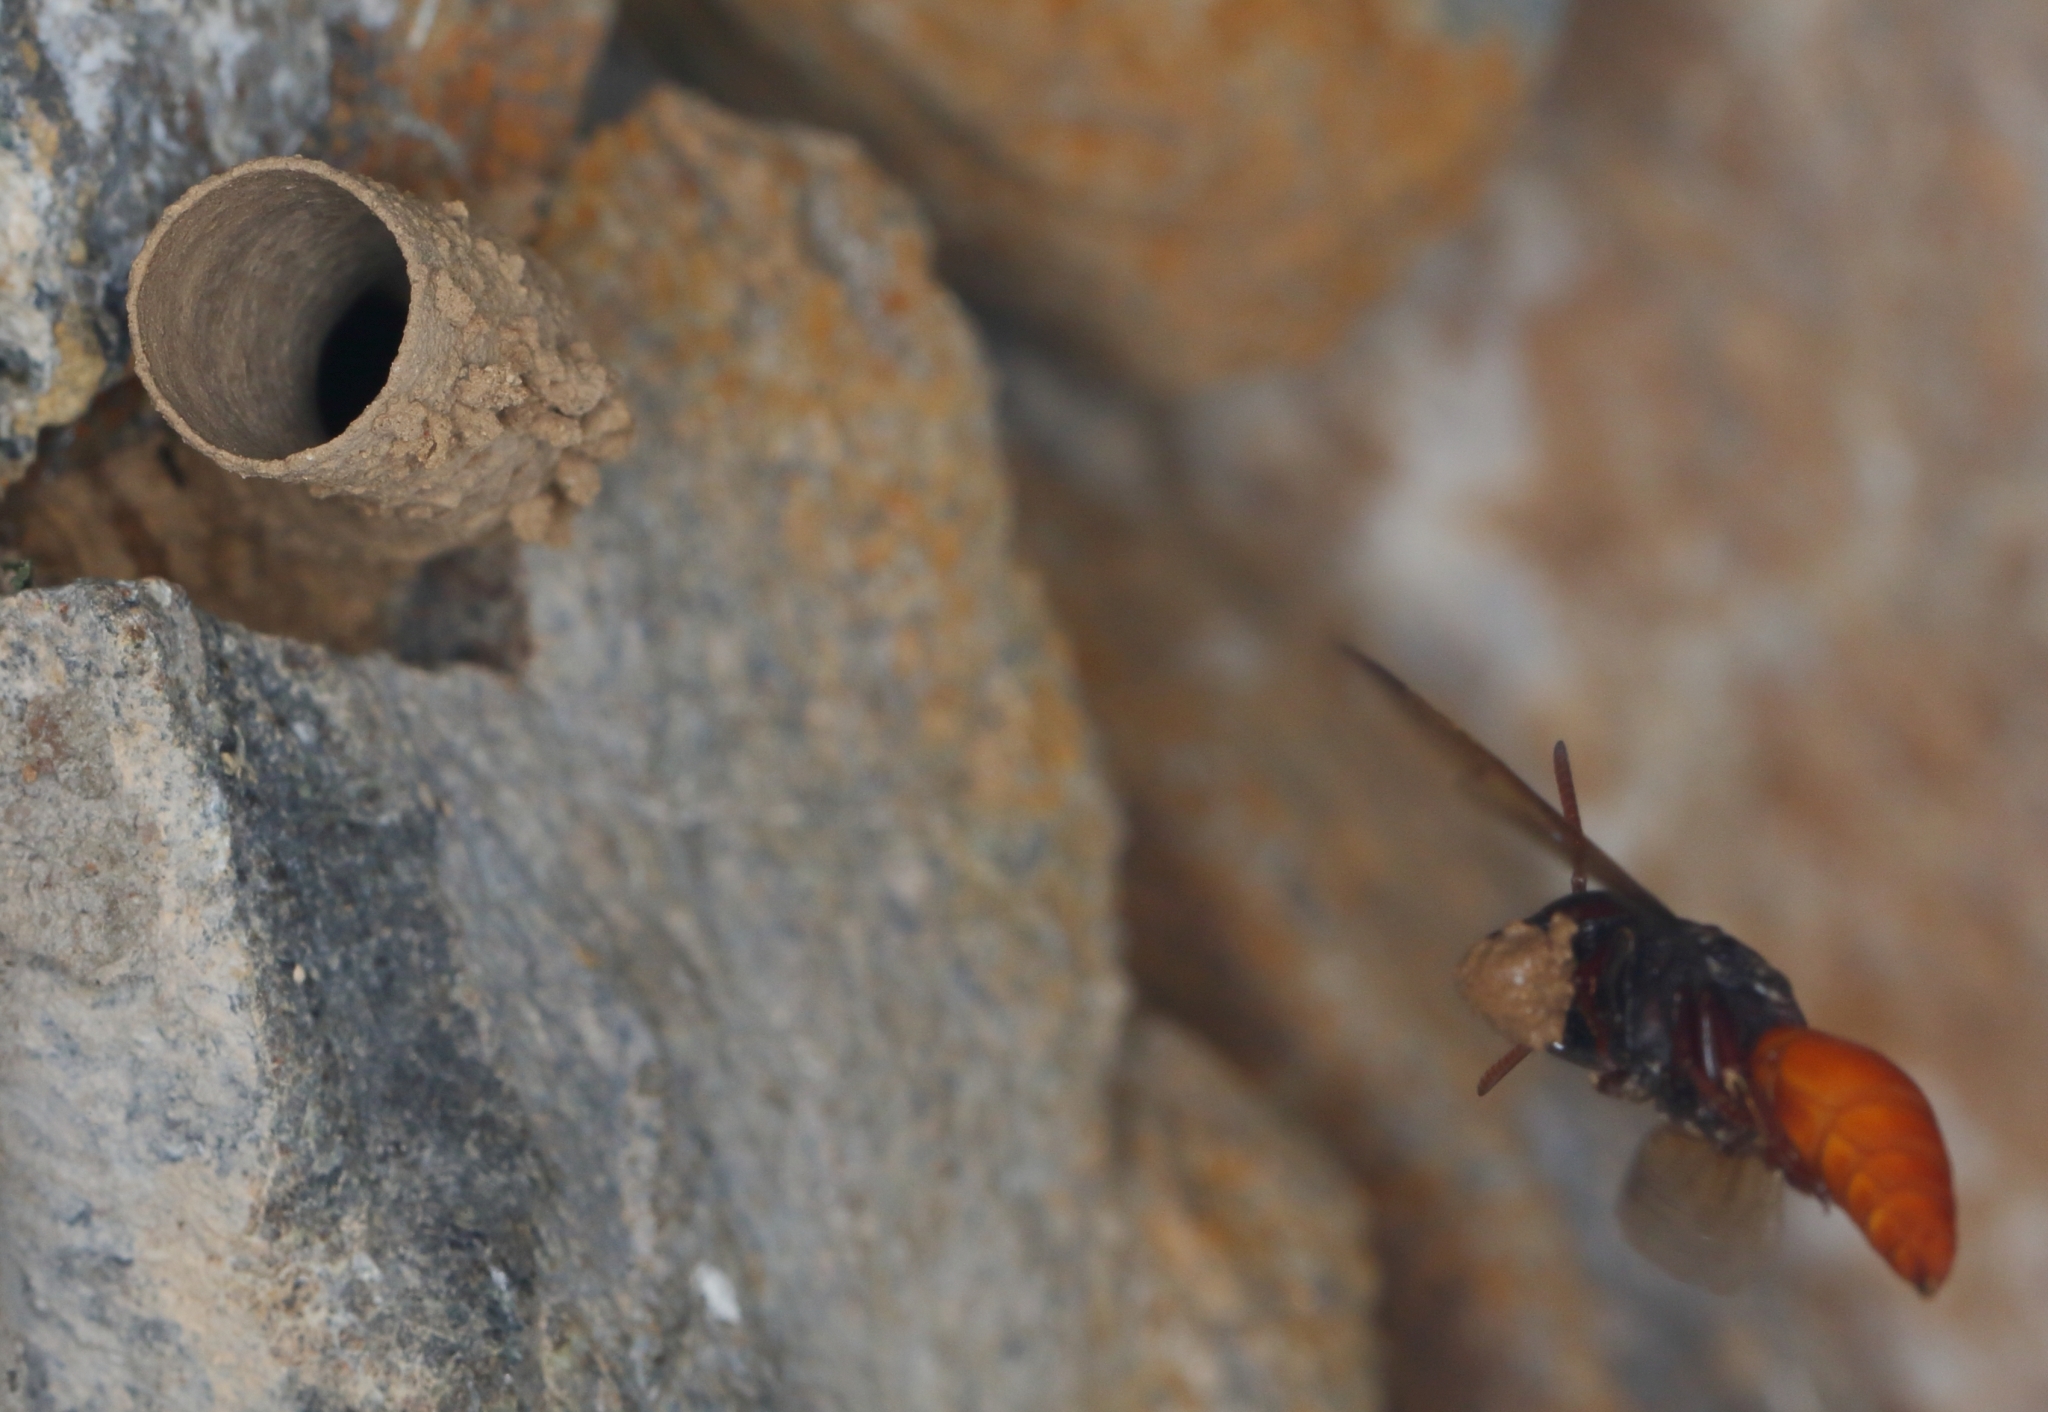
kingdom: Animalia
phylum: Arthropoda
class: Insecta
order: Hymenoptera
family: Eumenidae
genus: Tricarinodynerus
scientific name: Tricarinodynerus guerinii
